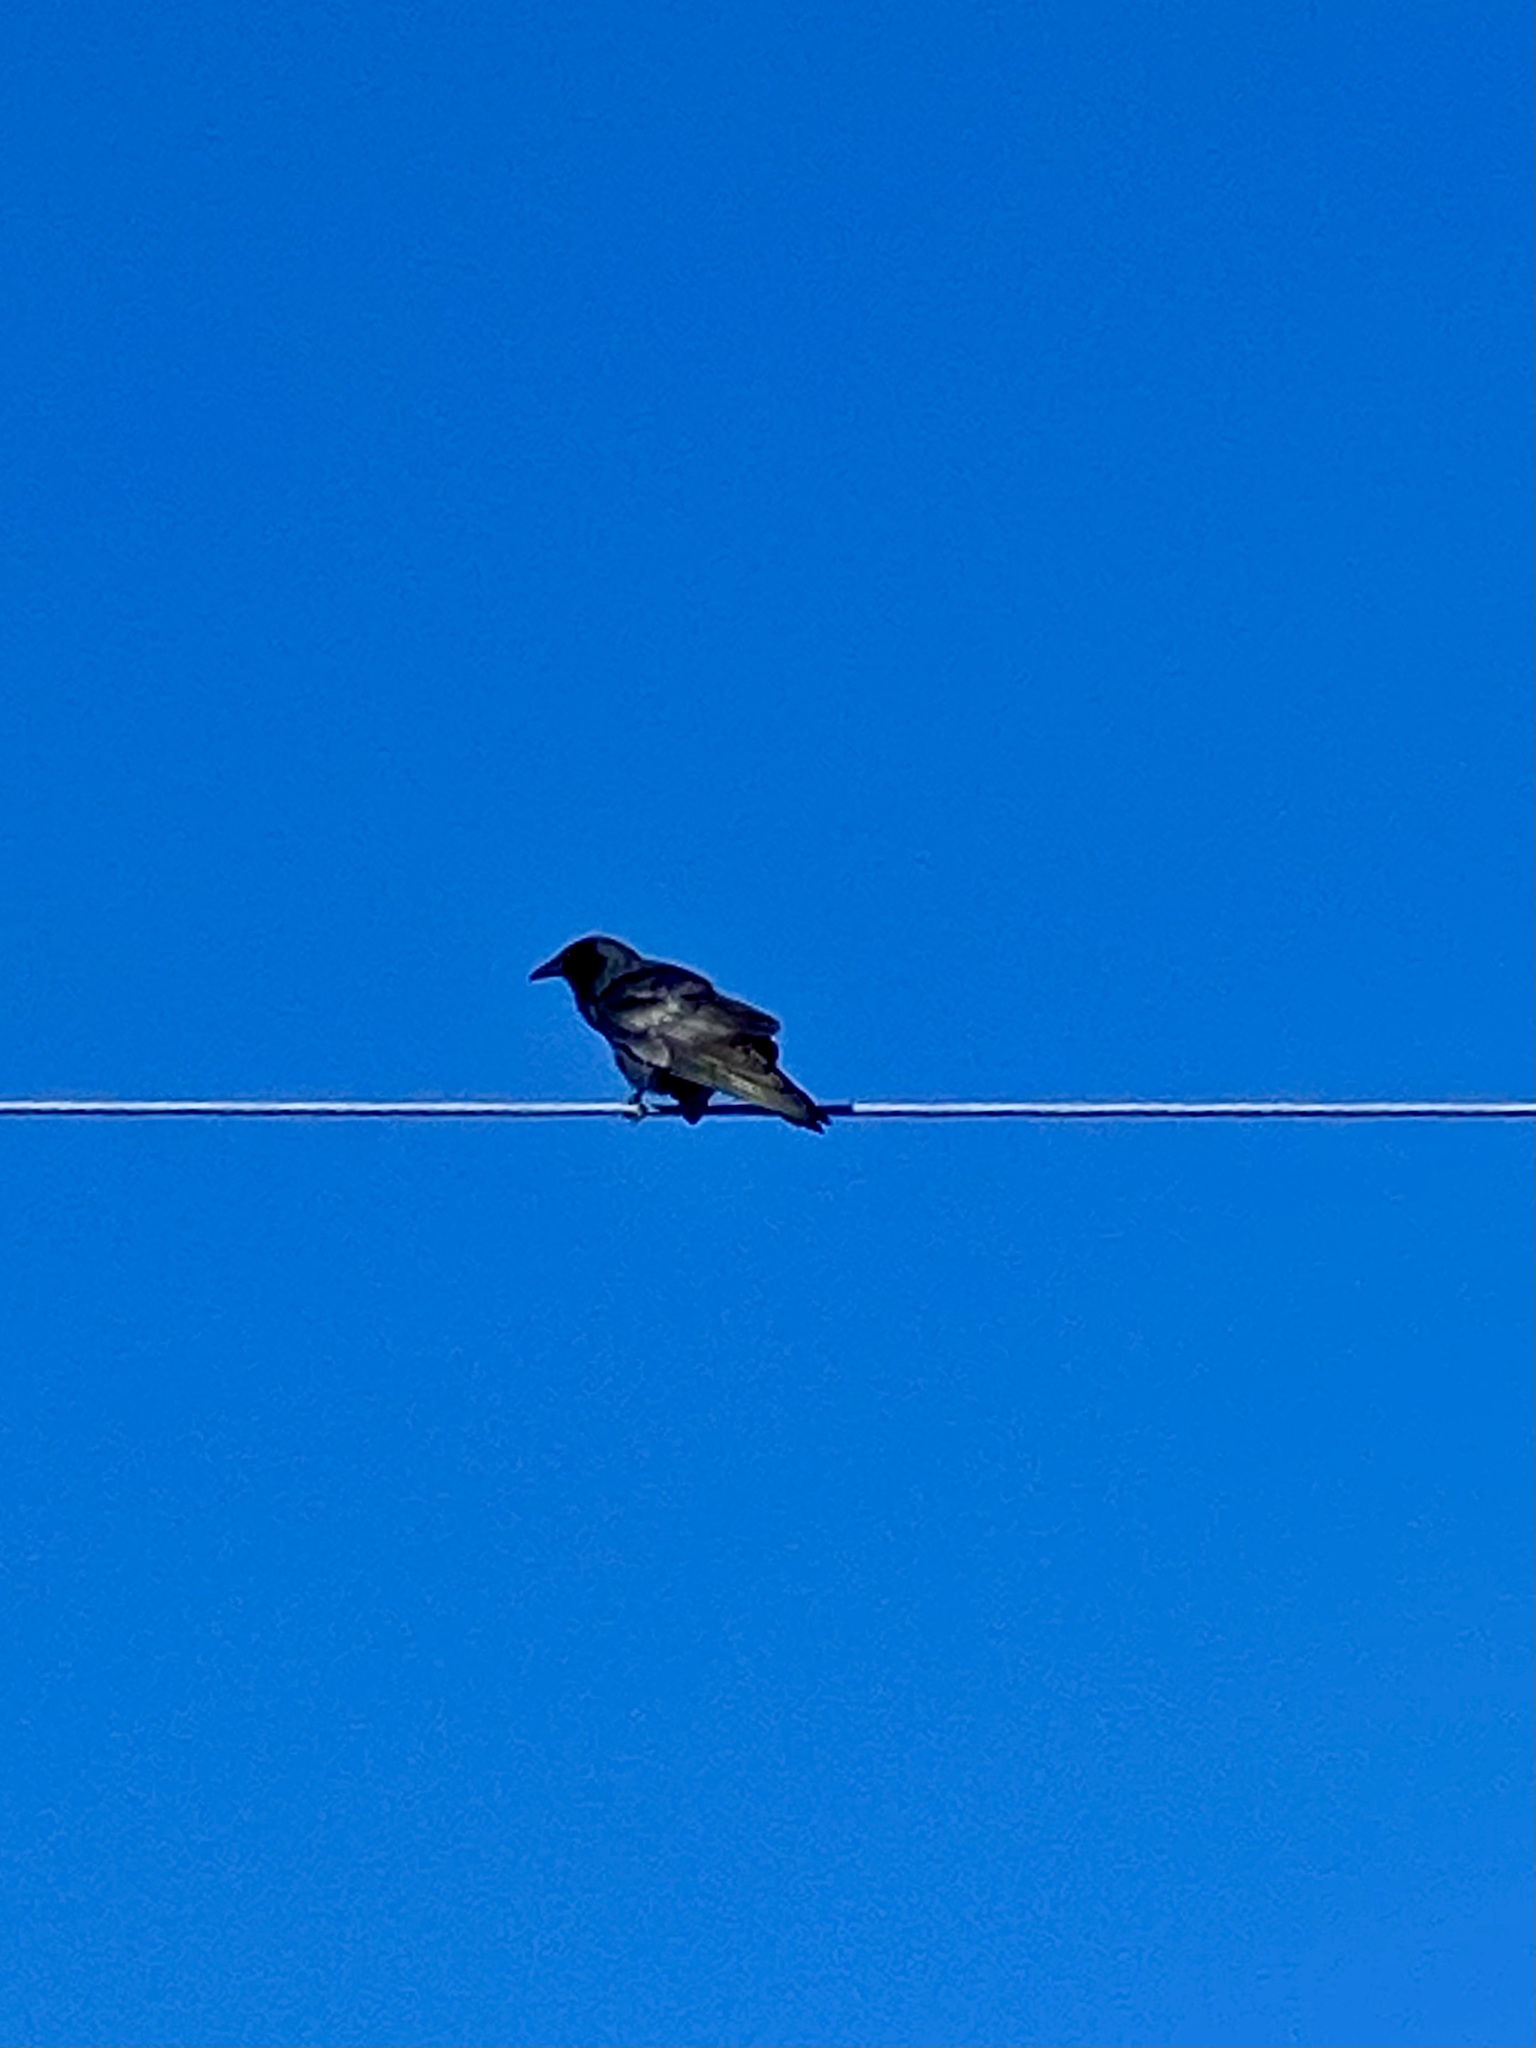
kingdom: Animalia
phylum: Chordata
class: Aves
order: Passeriformes
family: Corvidae
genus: Corvus
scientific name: Corvus ossifragus
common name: Fish crow
